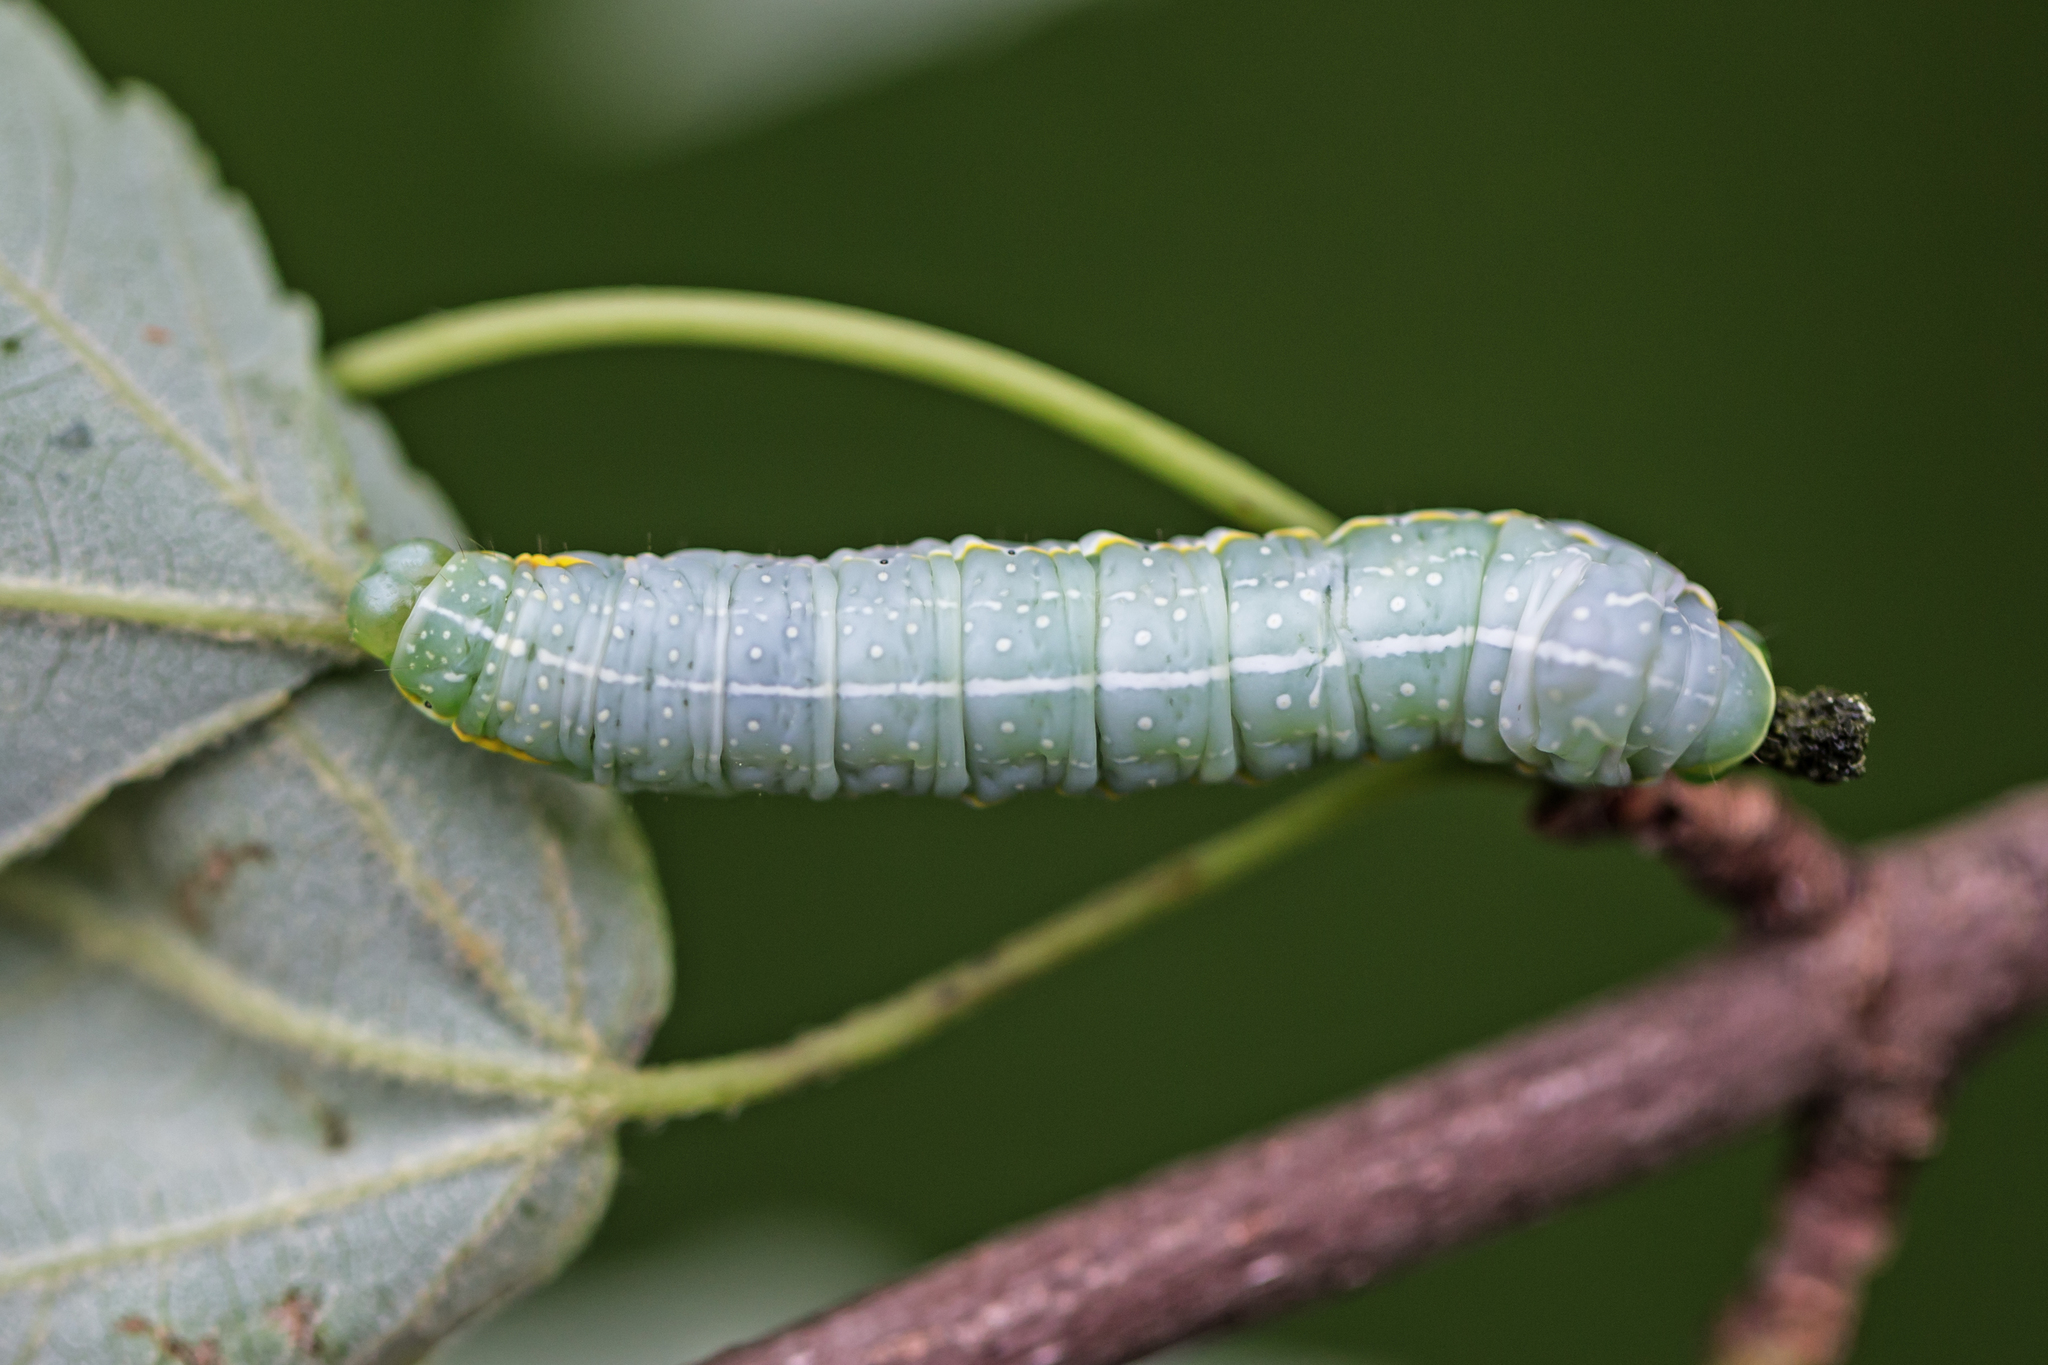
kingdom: Animalia
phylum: Arthropoda
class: Insecta
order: Lepidoptera
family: Noctuidae
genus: Amphipyra
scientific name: Amphipyra pyramidoides
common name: American copper underwing
